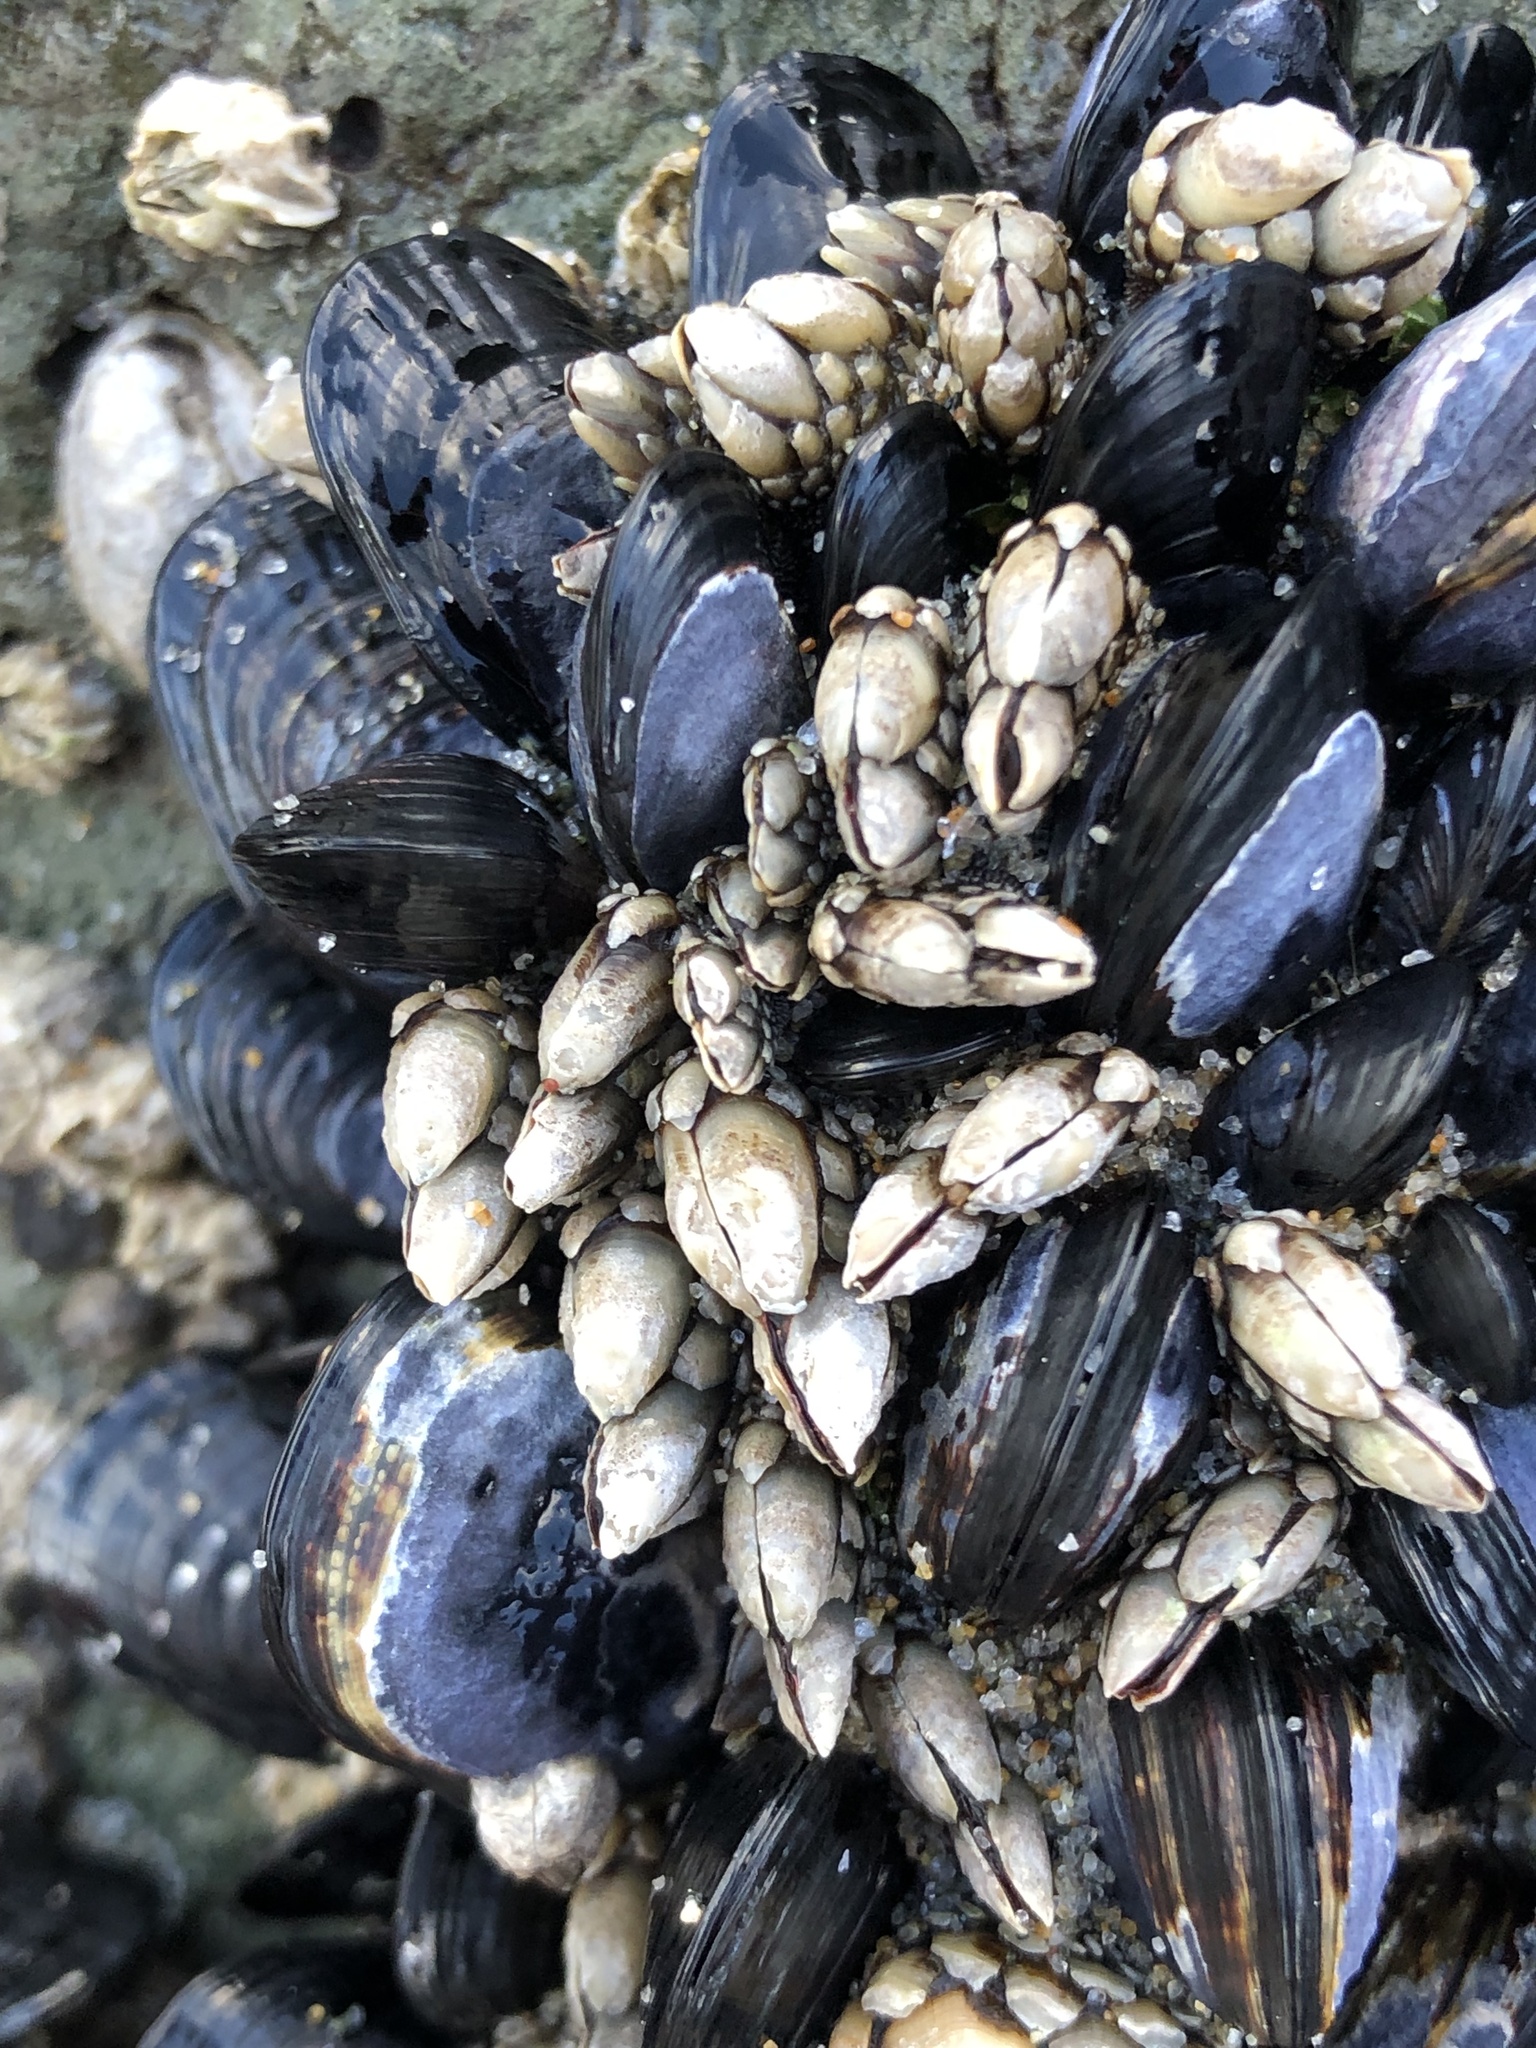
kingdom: Animalia
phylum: Arthropoda
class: Maxillopoda
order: Pedunculata
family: Pollicipedidae
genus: Pollicipes
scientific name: Pollicipes polymerus
